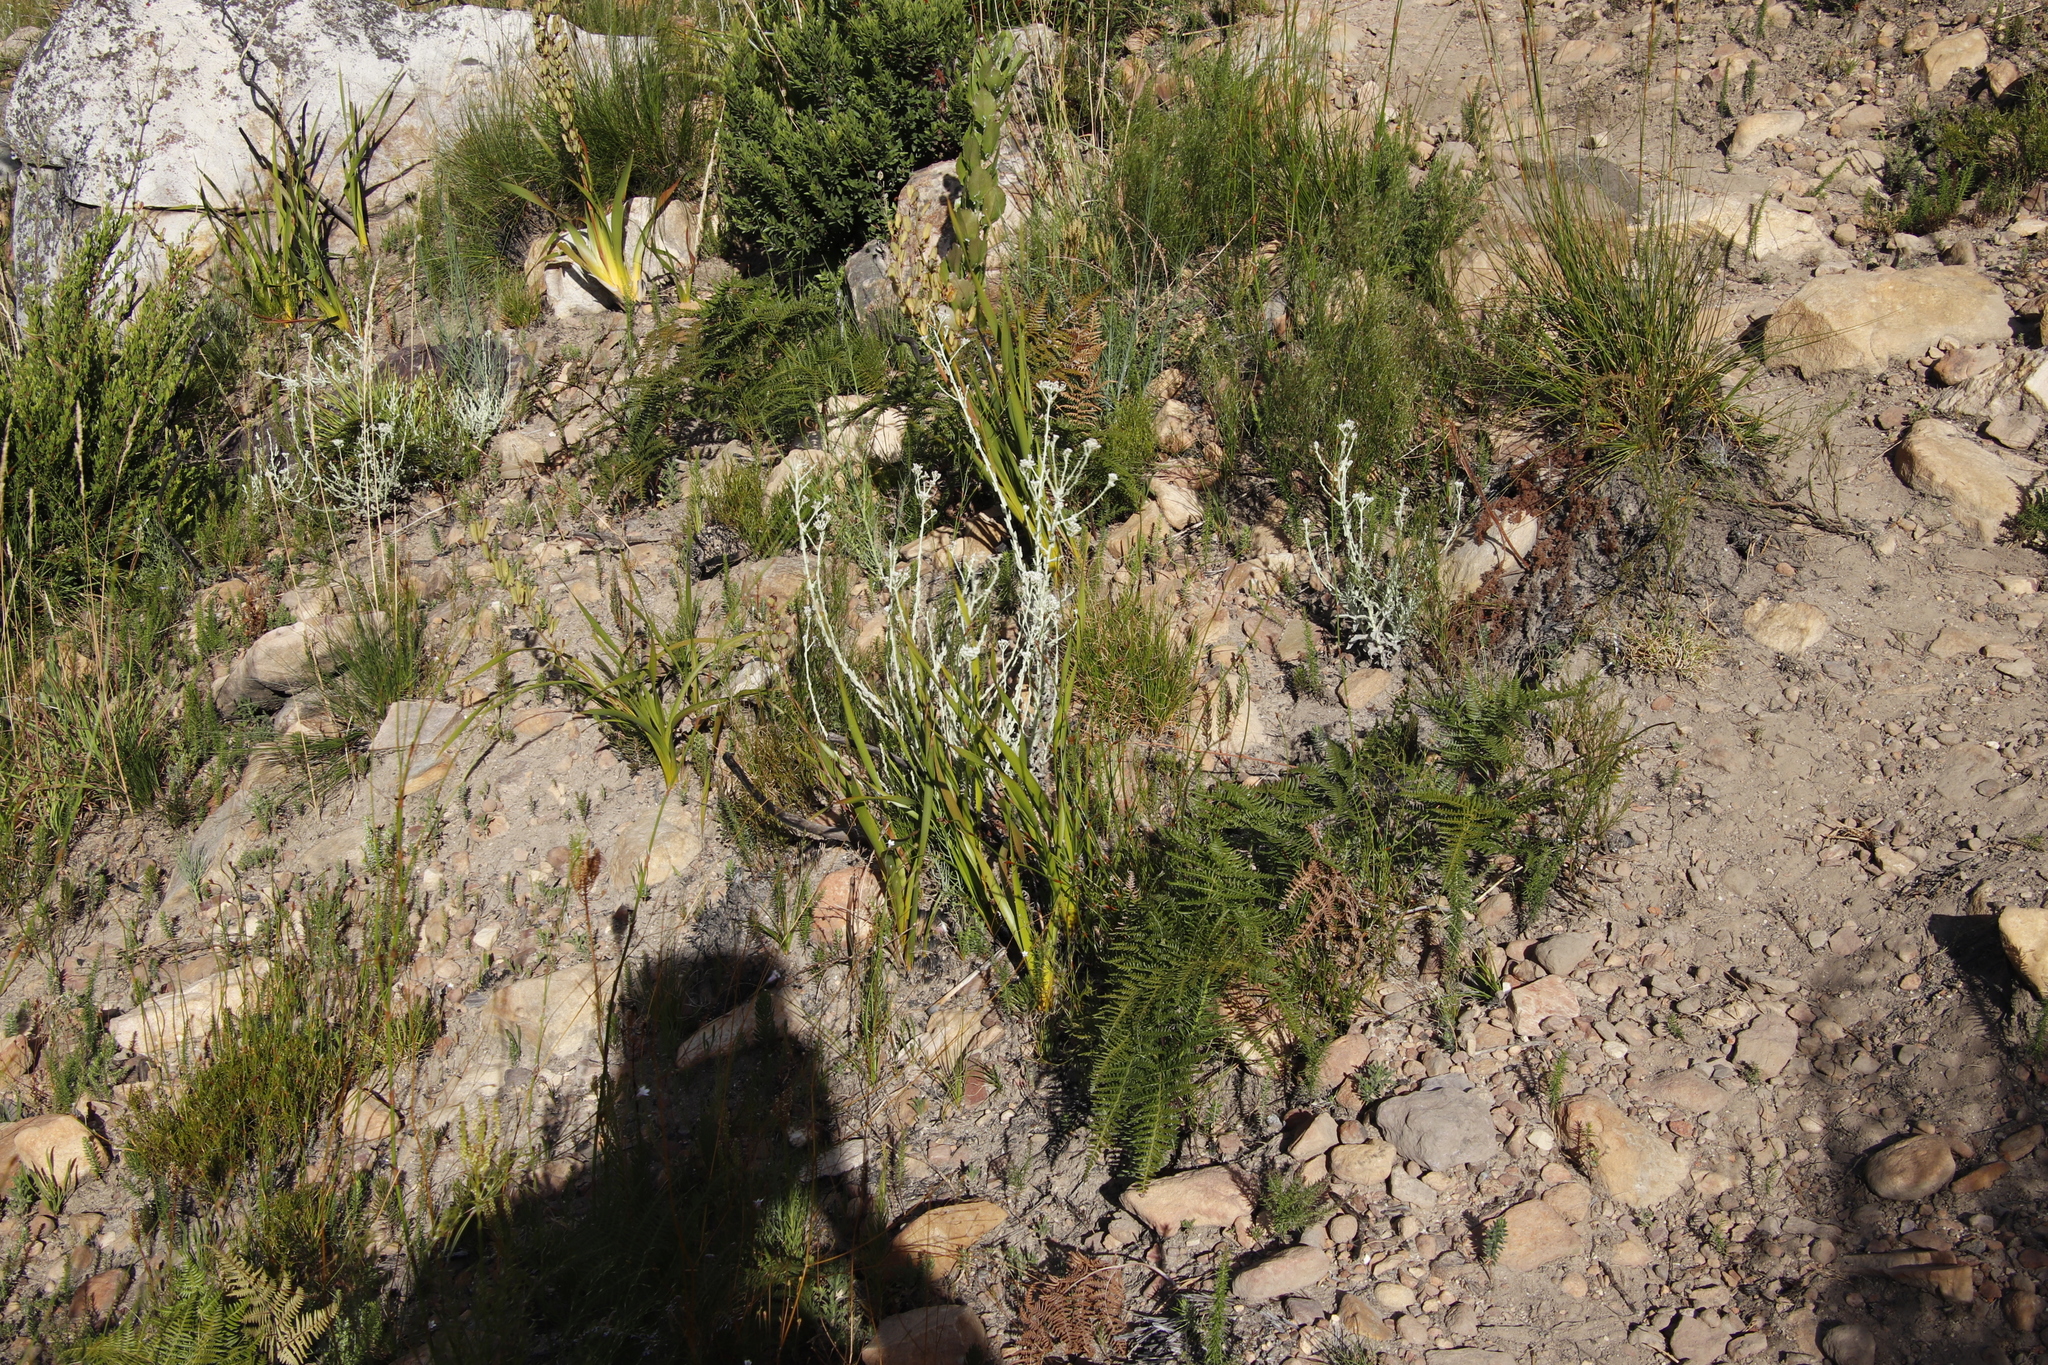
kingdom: Plantae
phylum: Tracheophyta
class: Polypodiopsida
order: Polypodiales
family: Dennstaedtiaceae
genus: Pteridium
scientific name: Pteridium aquilinum
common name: Bracken
